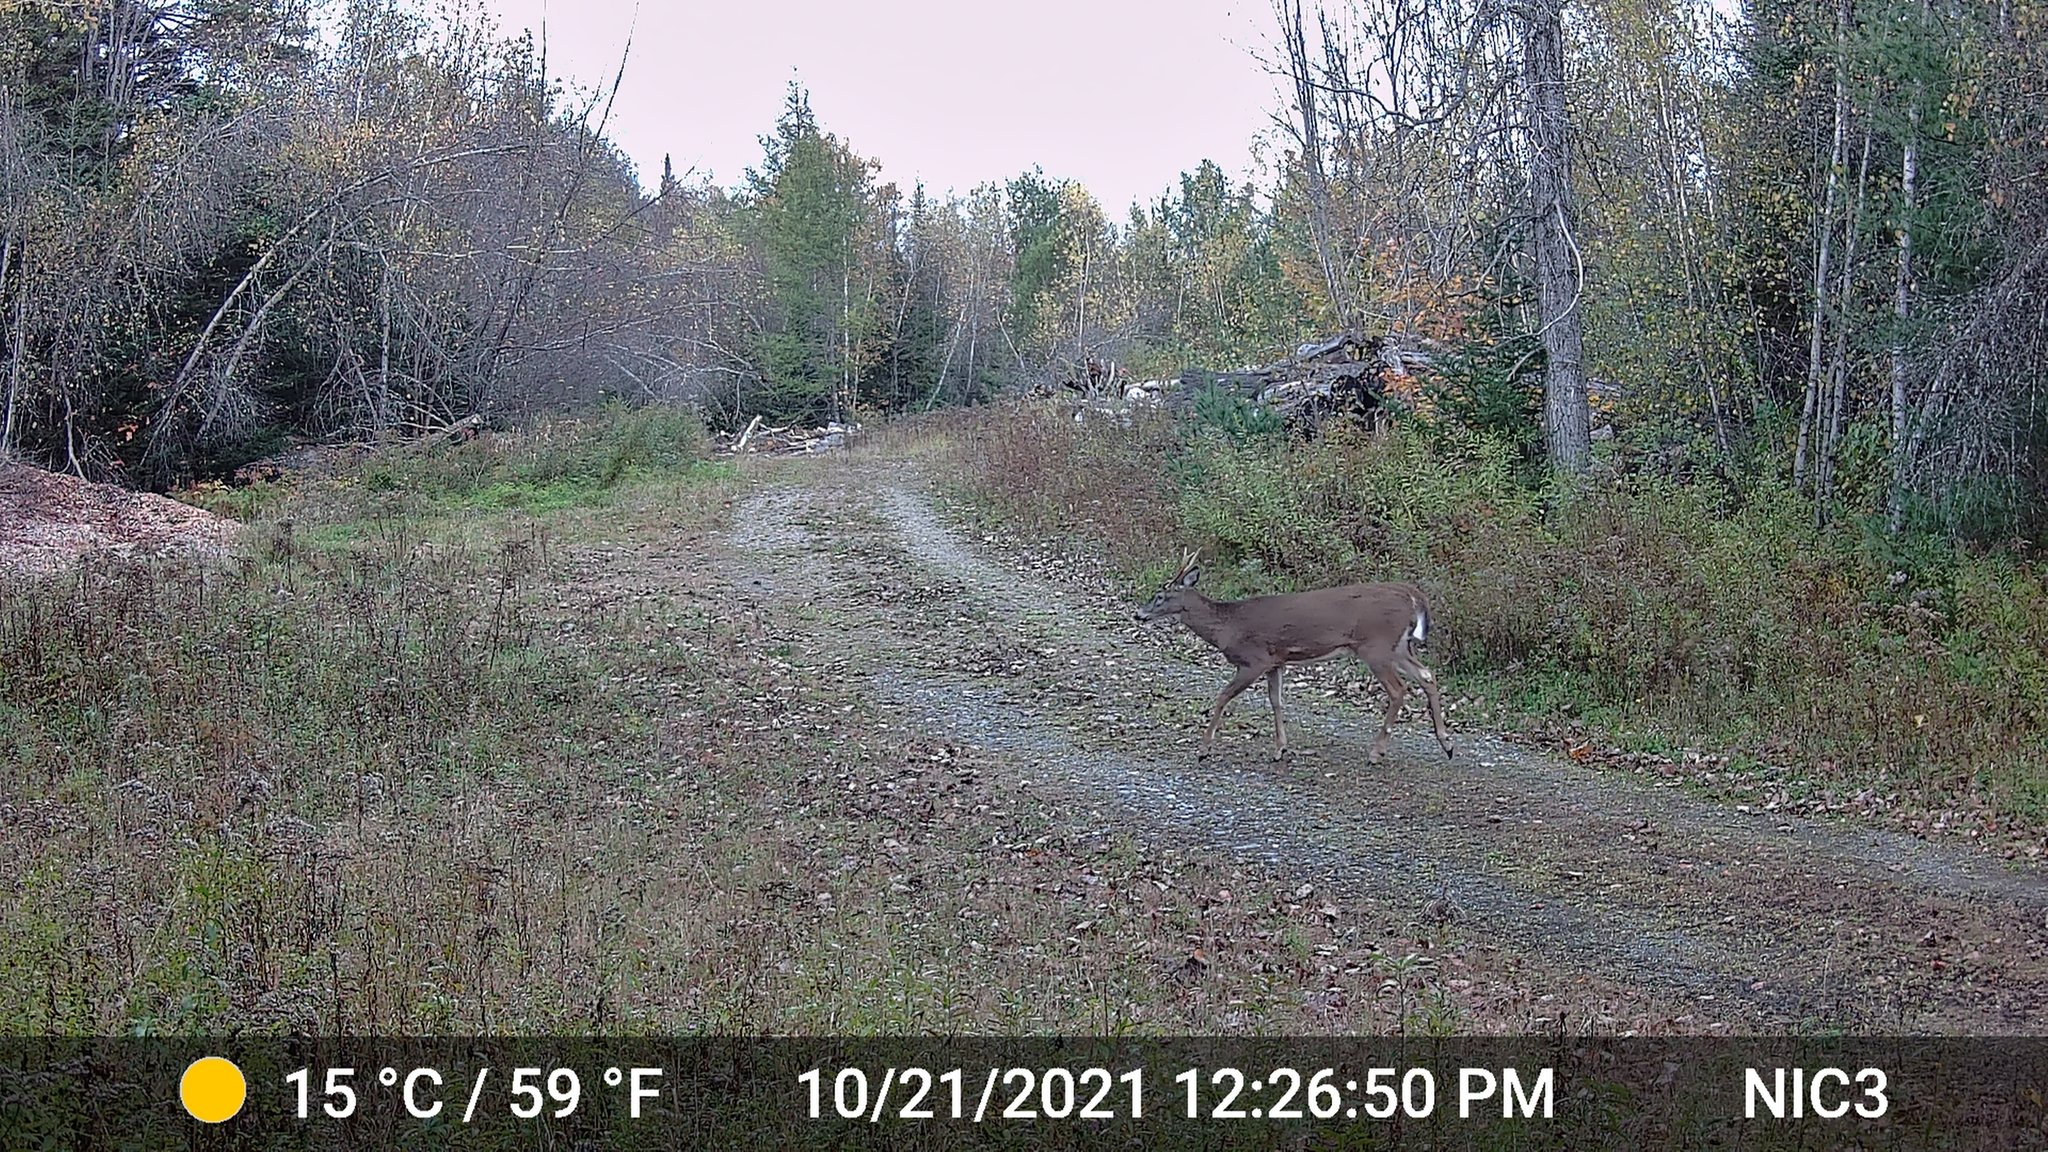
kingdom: Animalia
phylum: Chordata
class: Mammalia
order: Artiodactyla
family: Cervidae
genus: Odocoileus
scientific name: Odocoileus virginianus
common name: White-tailed deer
